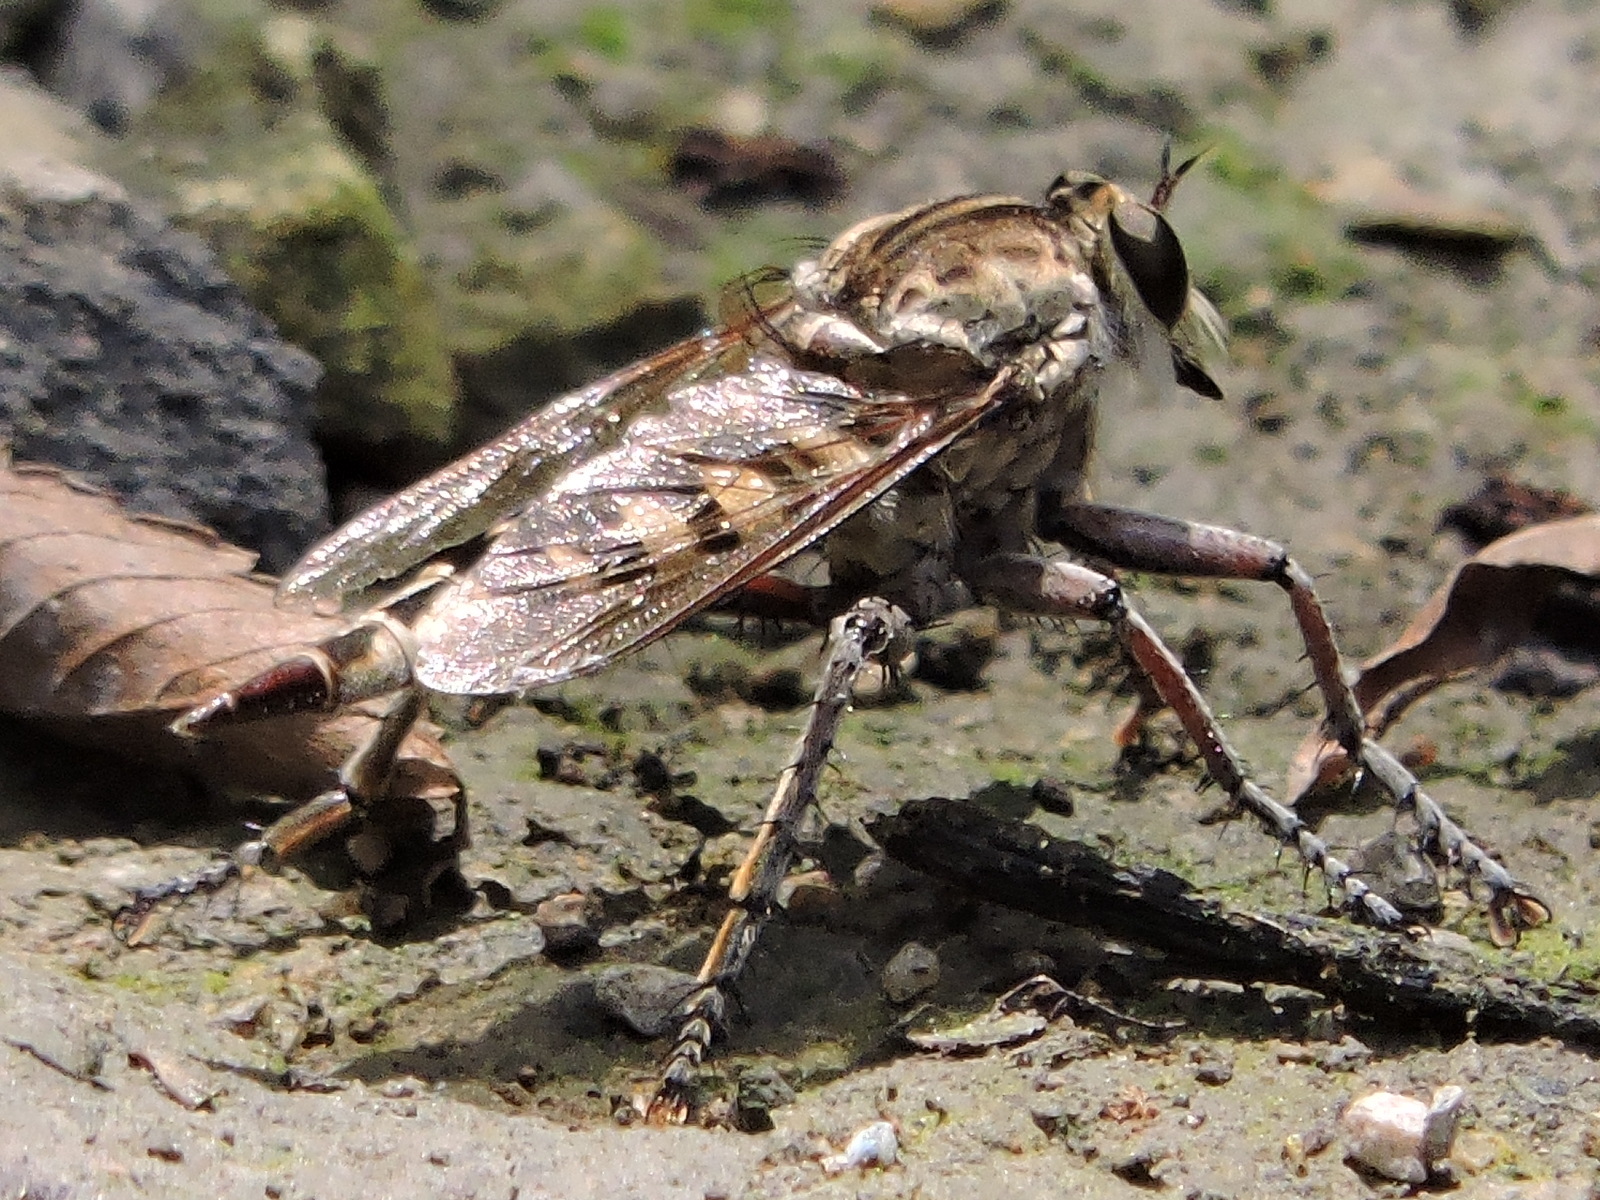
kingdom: Animalia
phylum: Arthropoda
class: Insecta
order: Diptera
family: Asilidae
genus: Triorla
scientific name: Triorla interrupta
